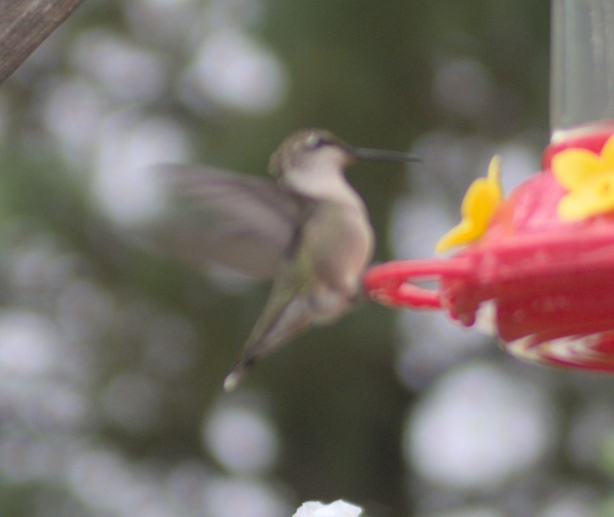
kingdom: Animalia
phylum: Chordata
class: Aves
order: Apodiformes
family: Trochilidae
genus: Archilochus
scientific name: Archilochus colubris
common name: Ruby-throated hummingbird
